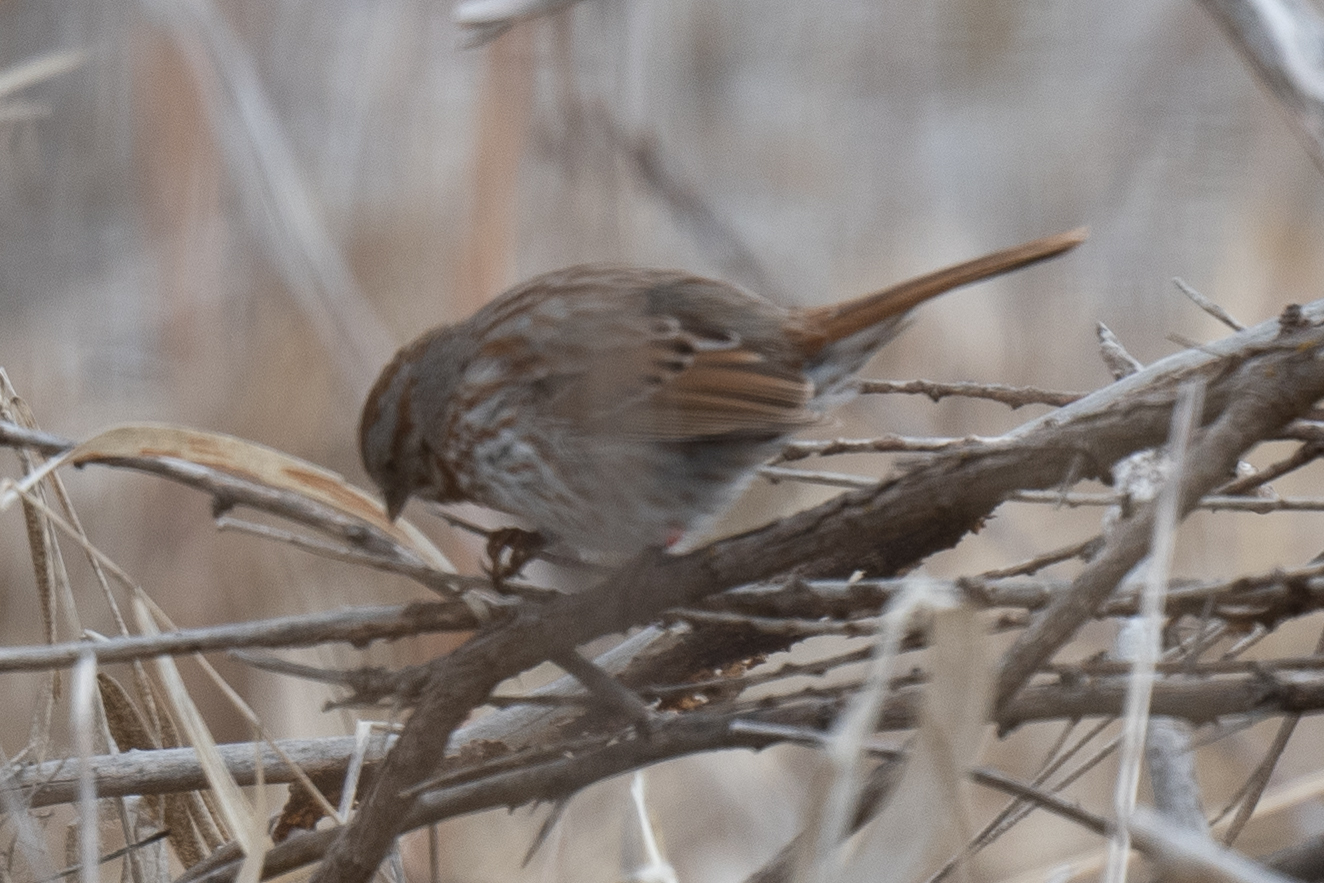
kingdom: Animalia
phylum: Chordata
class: Aves
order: Passeriformes
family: Passerellidae
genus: Melospiza
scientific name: Melospiza melodia
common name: Song sparrow
